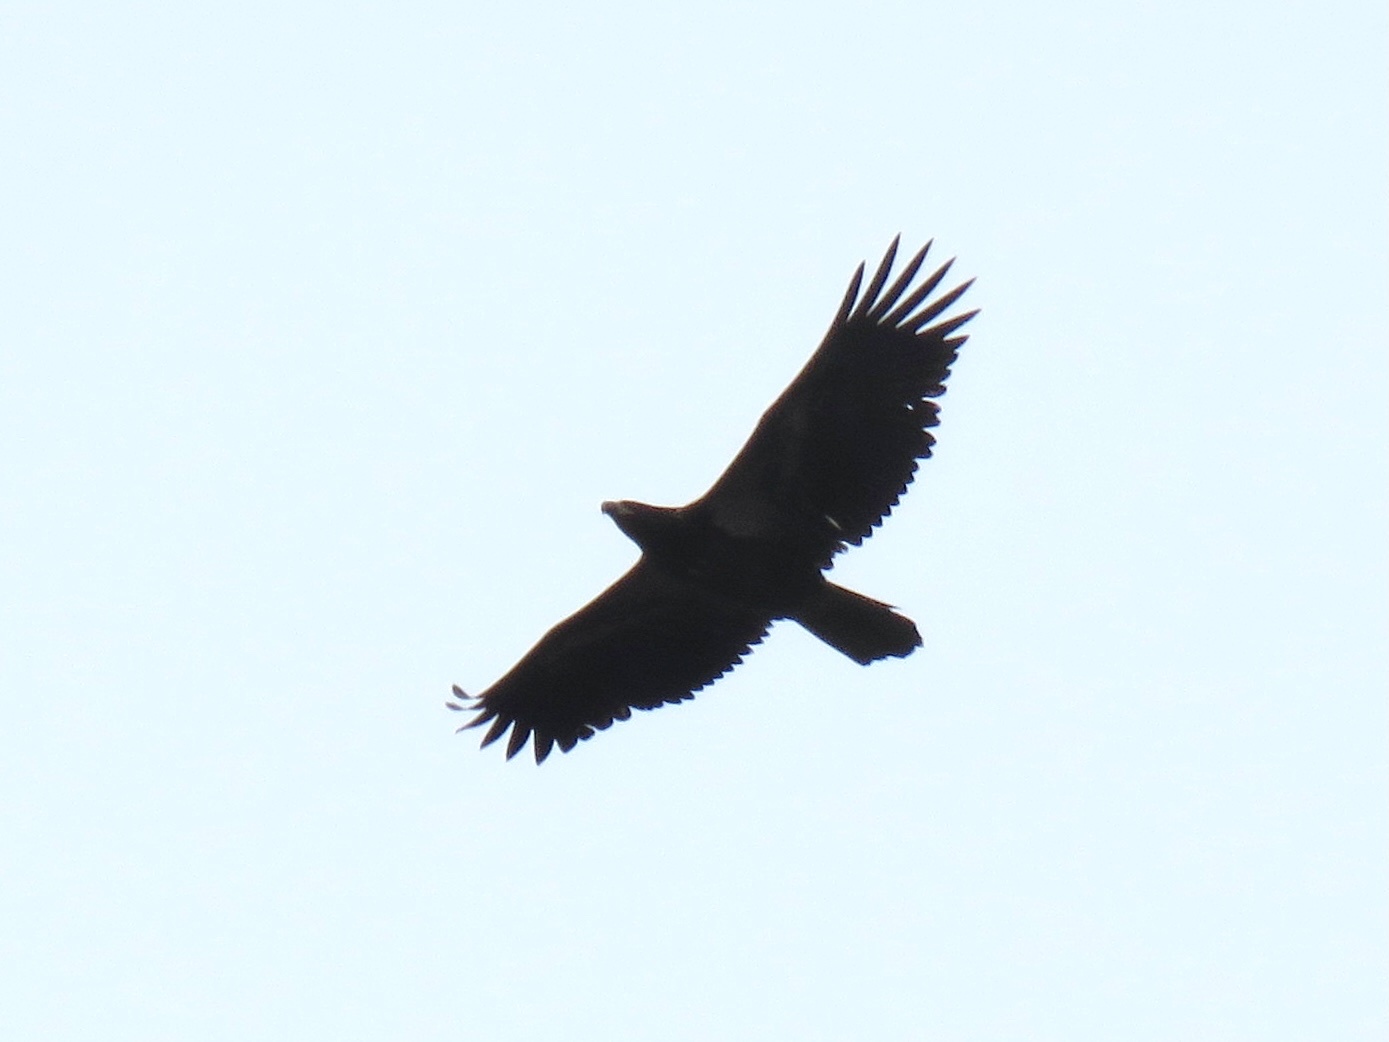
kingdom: Animalia
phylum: Chordata
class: Aves
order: Accipitriformes
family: Accipitridae
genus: Haliaeetus
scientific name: Haliaeetus leucocephalus
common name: Bald eagle
